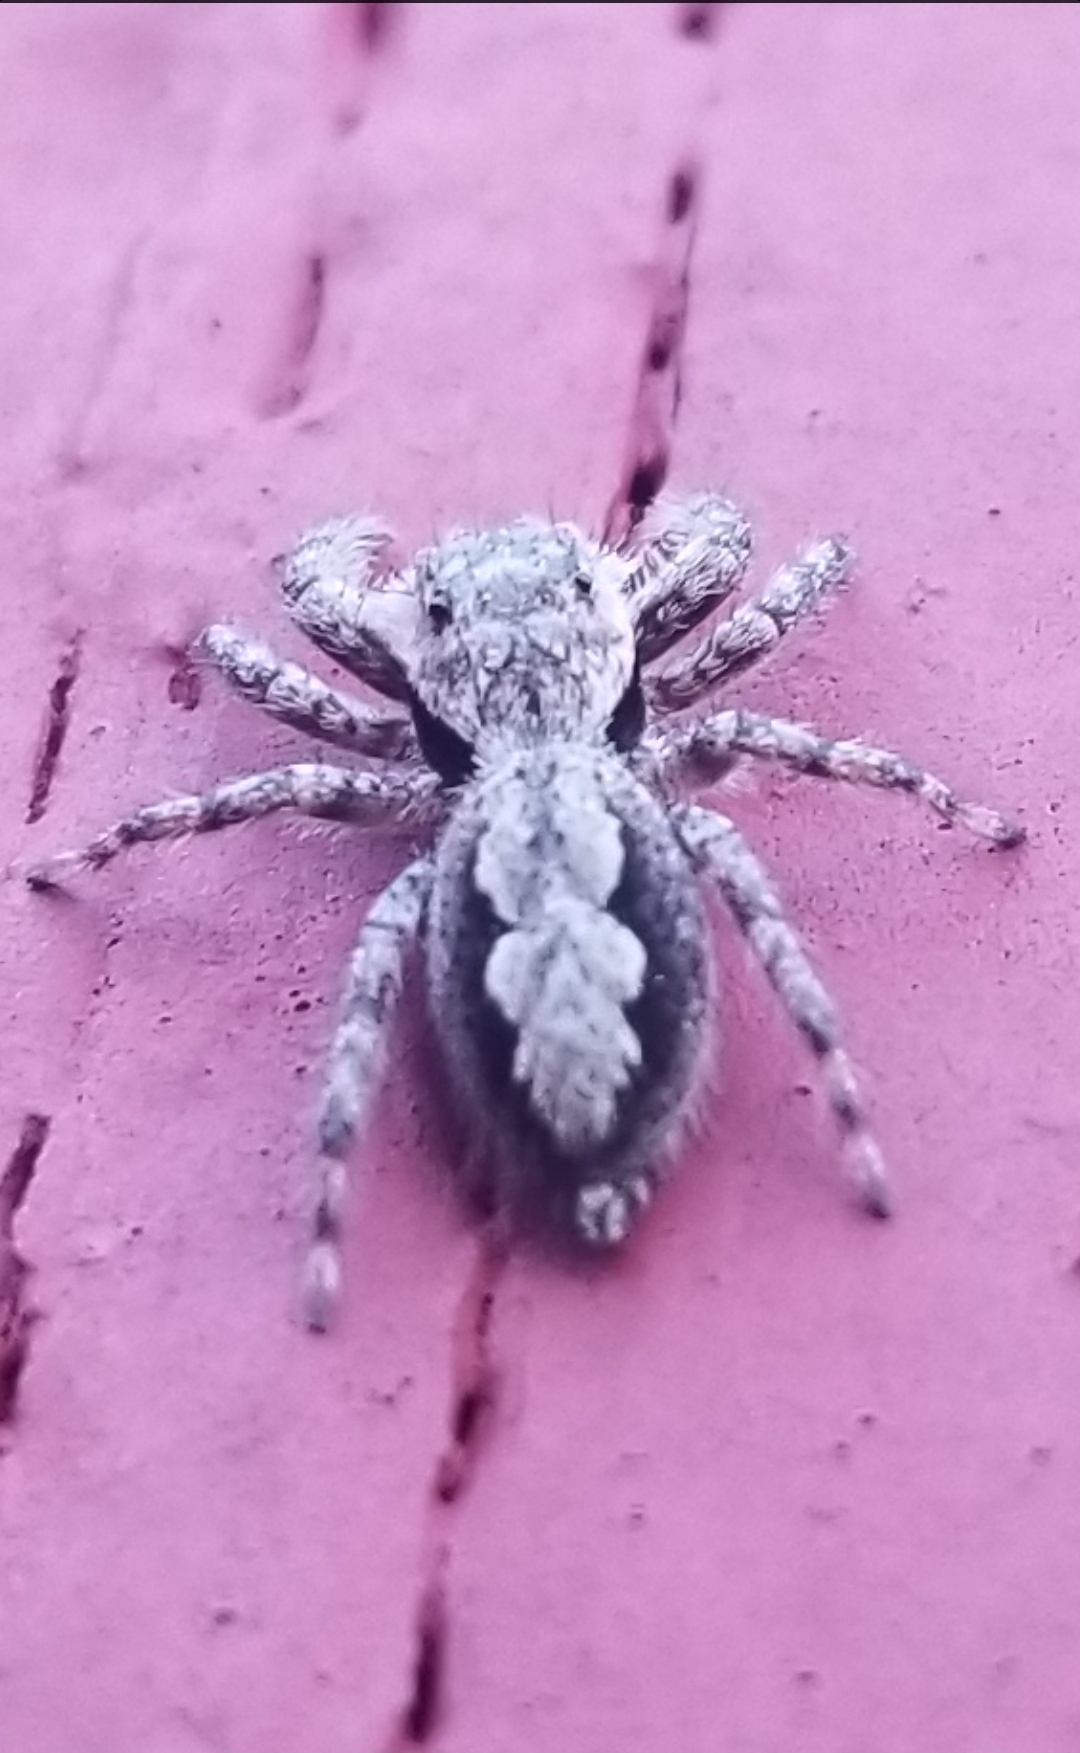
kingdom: Animalia
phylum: Arthropoda
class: Arachnida
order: Araneae
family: Salticidae
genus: Platycryptus
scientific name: Platycryptus undatus
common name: Tan jumping spider
